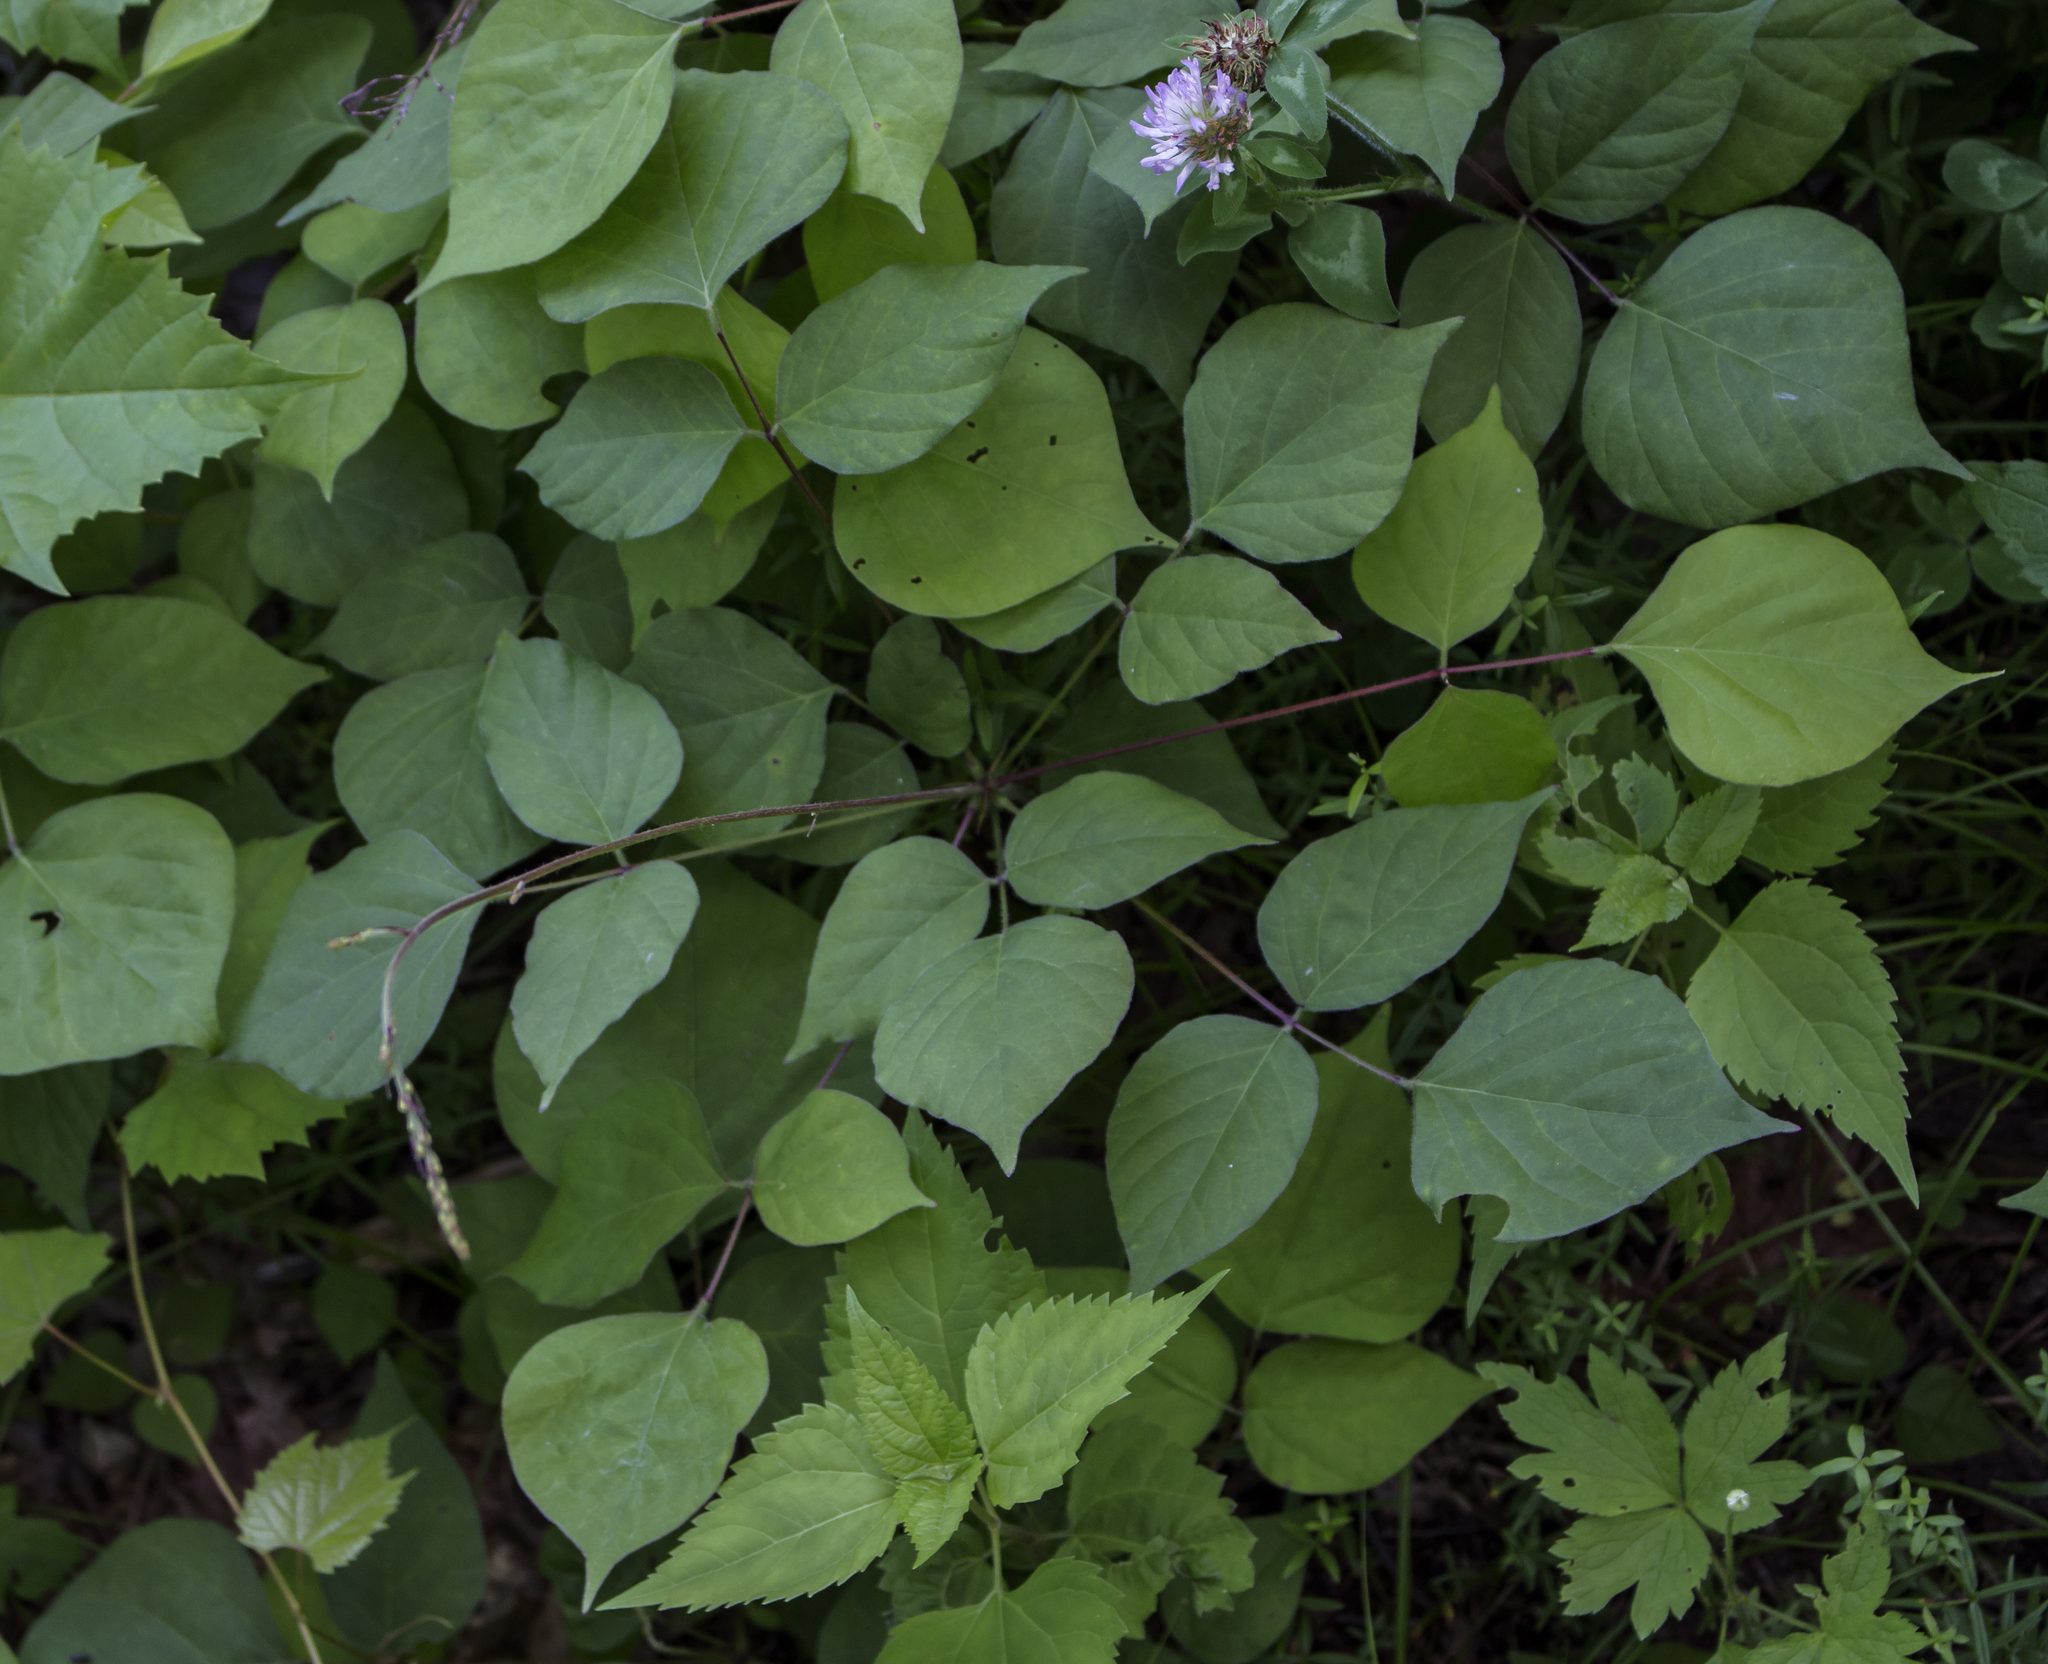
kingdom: Plantae
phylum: Tracheophyta
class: Magnoliopsida
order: Fabales
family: Fabaceae
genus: Hylodesmum
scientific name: Hylodesmum glutinosum
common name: Clustered-leaved tick-trefoil
